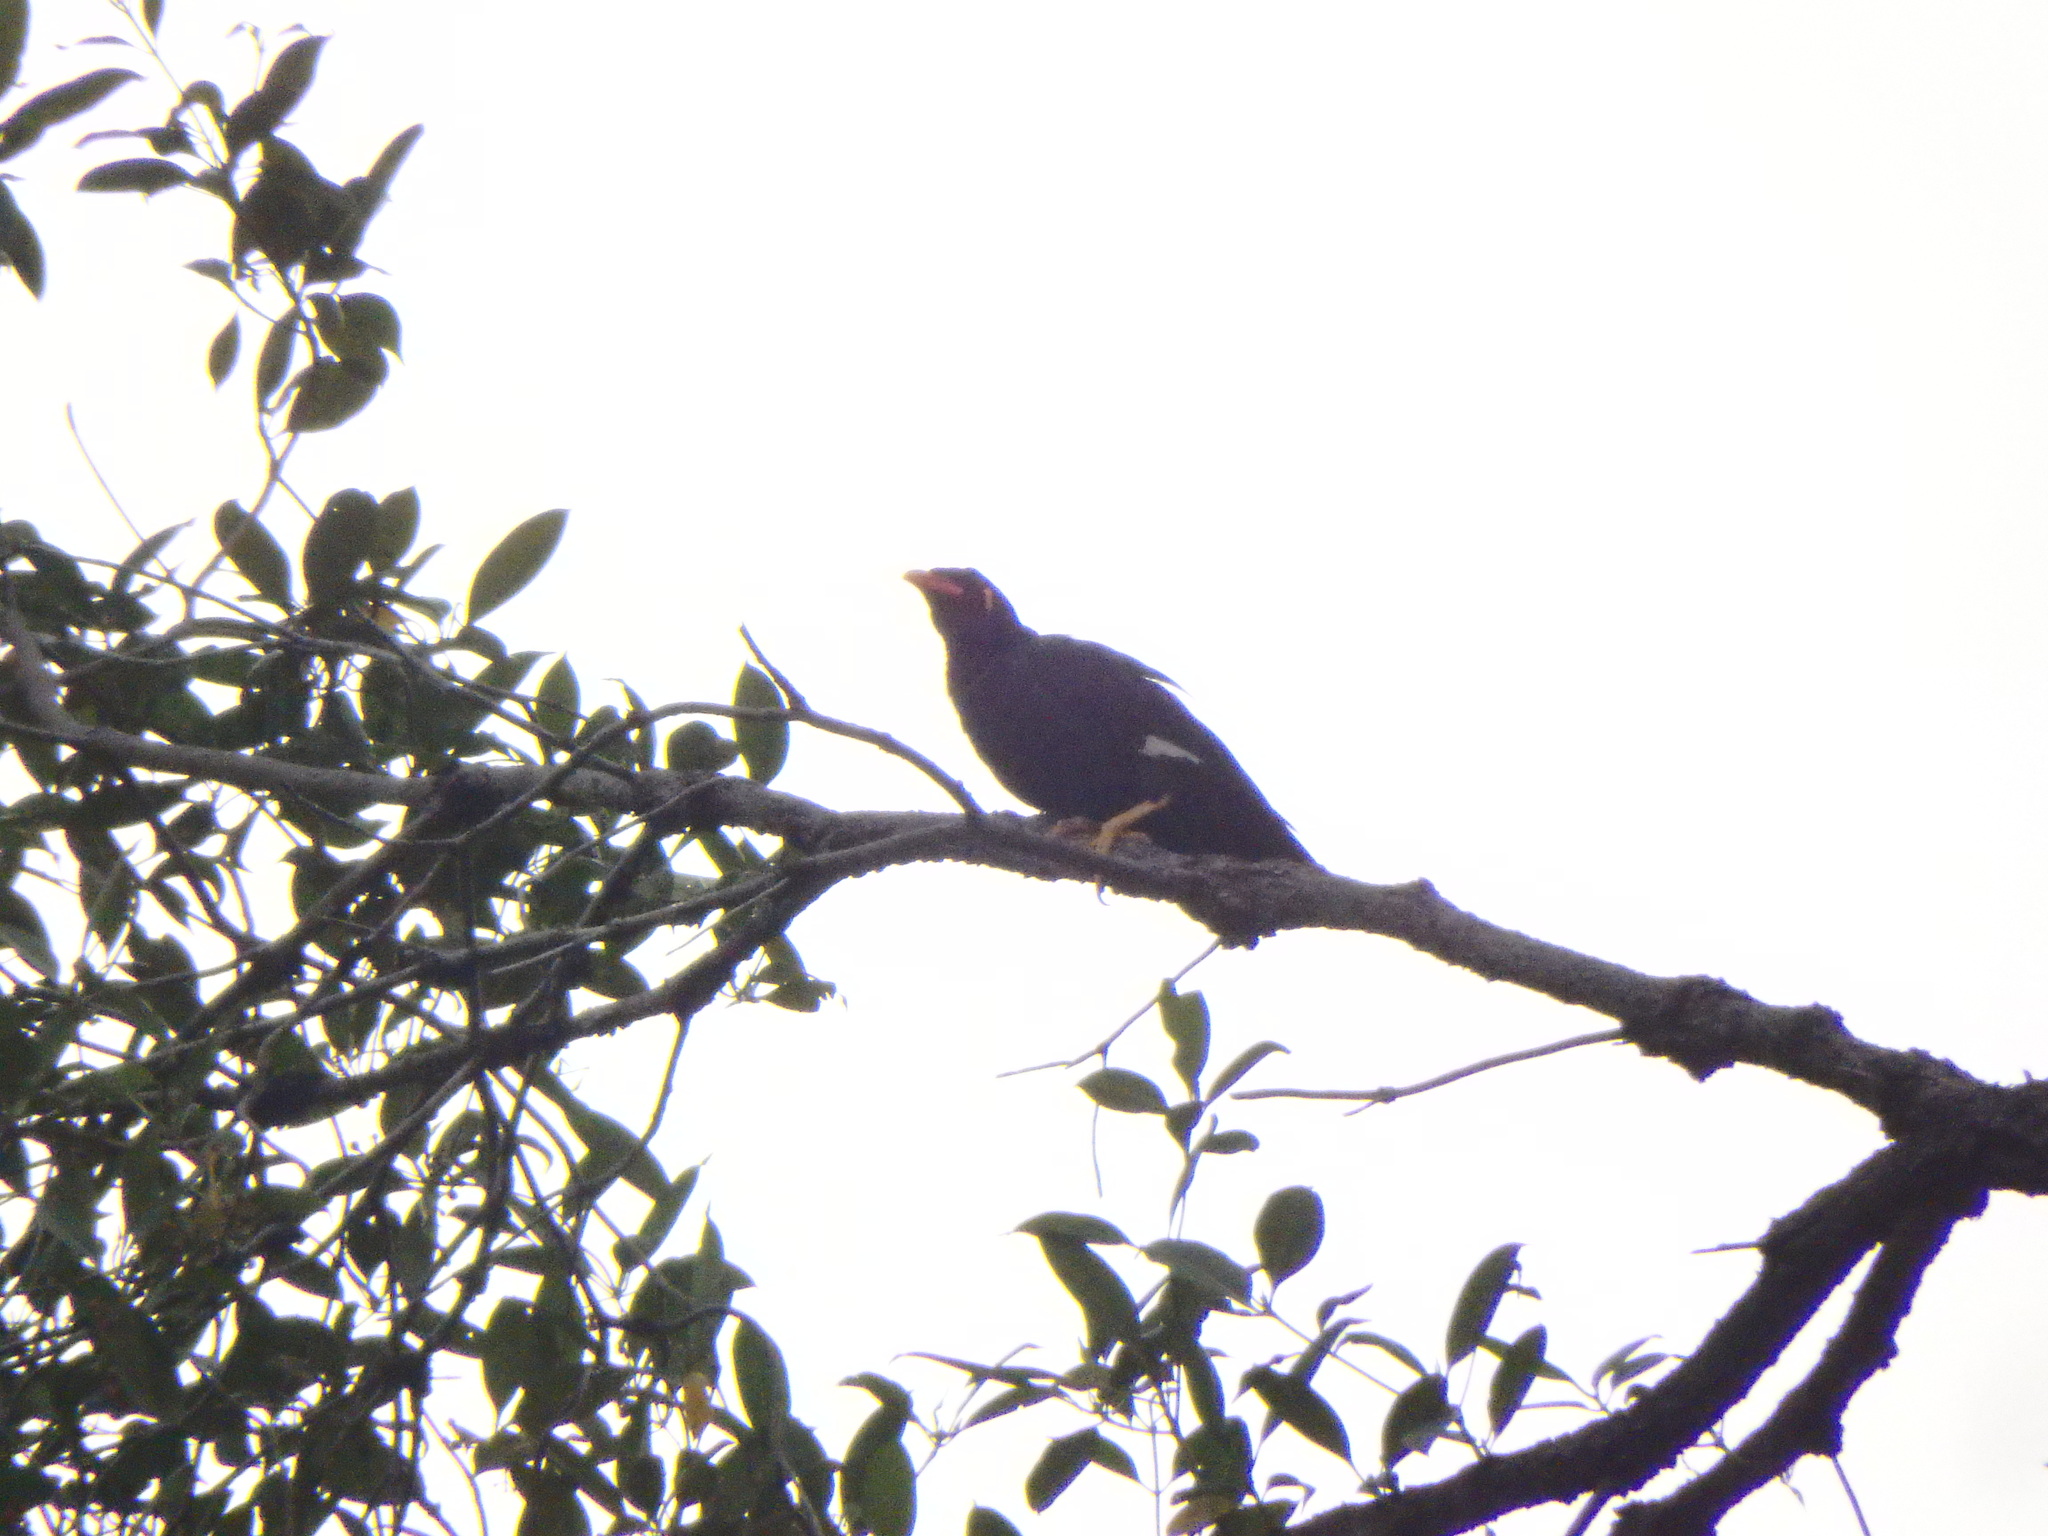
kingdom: Animalia
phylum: Chordata
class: Aves
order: Passeriformes
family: Sturnidae
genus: Gracula
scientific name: Gracula religiosa
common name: Common hill myna
